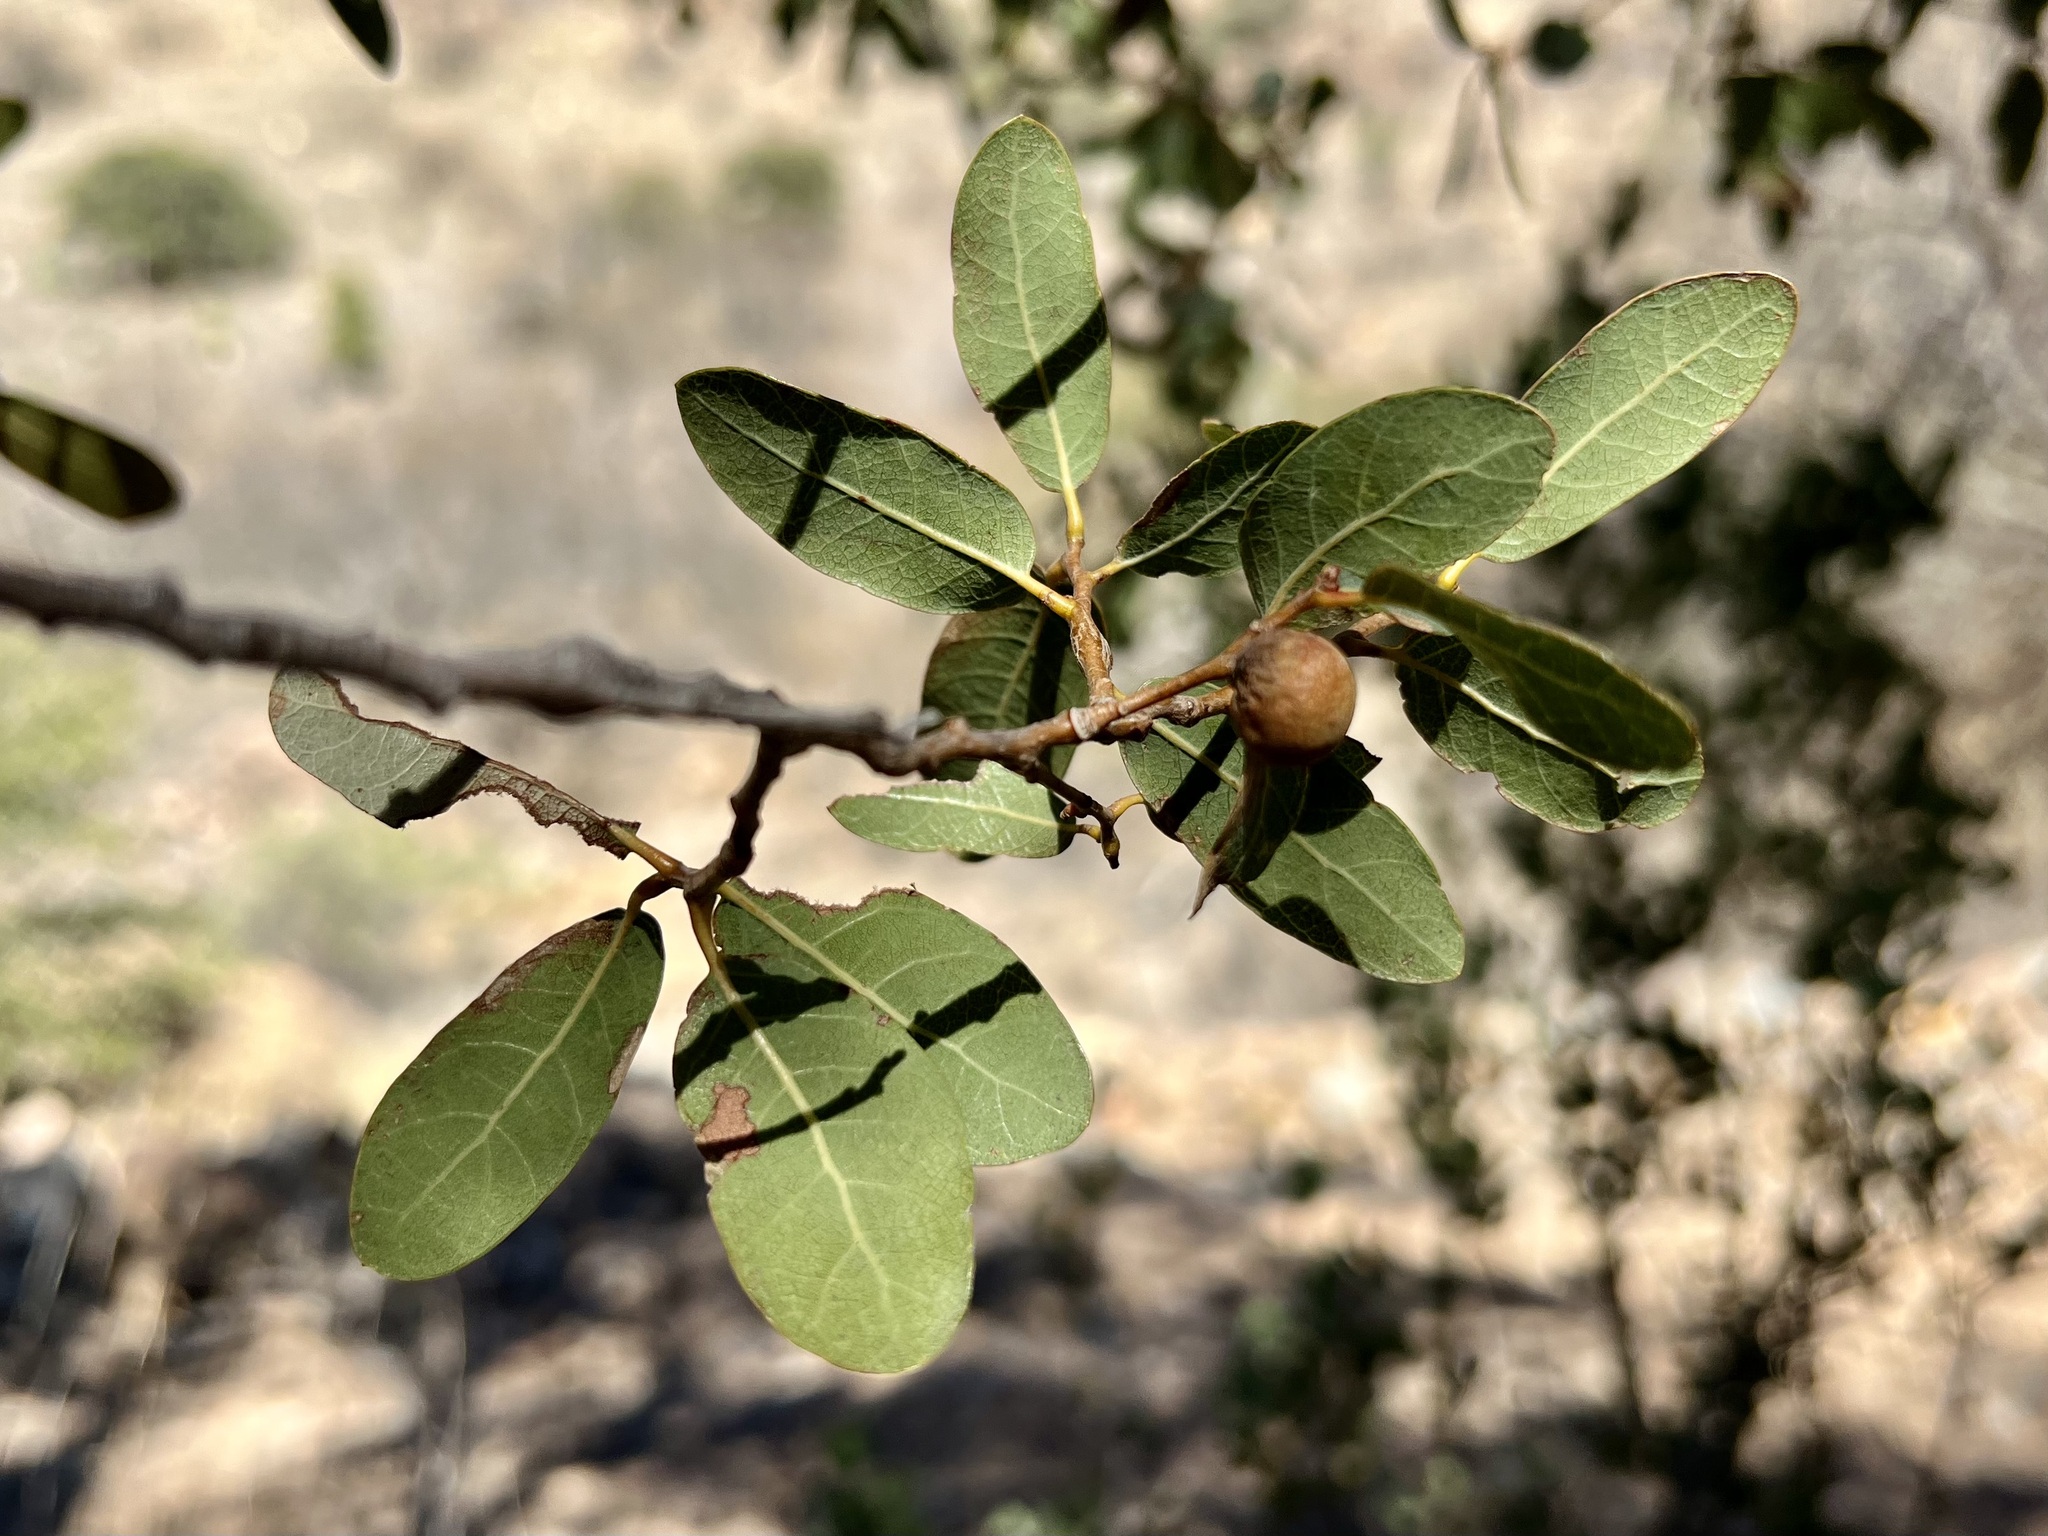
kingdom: Plantae
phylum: Tracheophyta
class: Magnoliopsida
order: Fagales
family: Fagaceae
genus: Quercus
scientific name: Quercus oblongifolia
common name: Mexican blue oak
